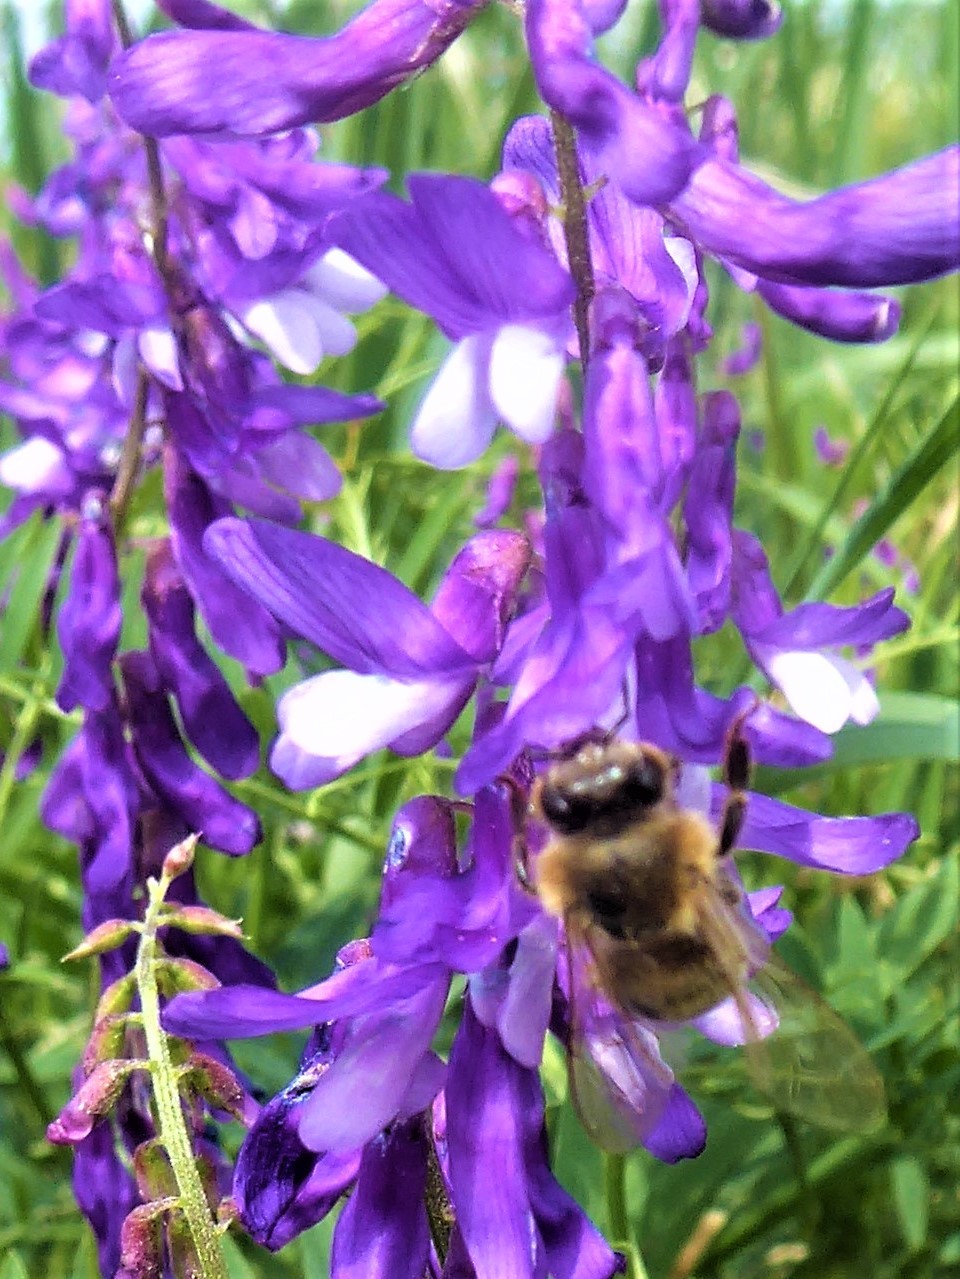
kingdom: Animalia
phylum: Arthropoda
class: Insecta
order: Hymenoptera
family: Apidae
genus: Apis
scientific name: Apis mellifera
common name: Honey bee
